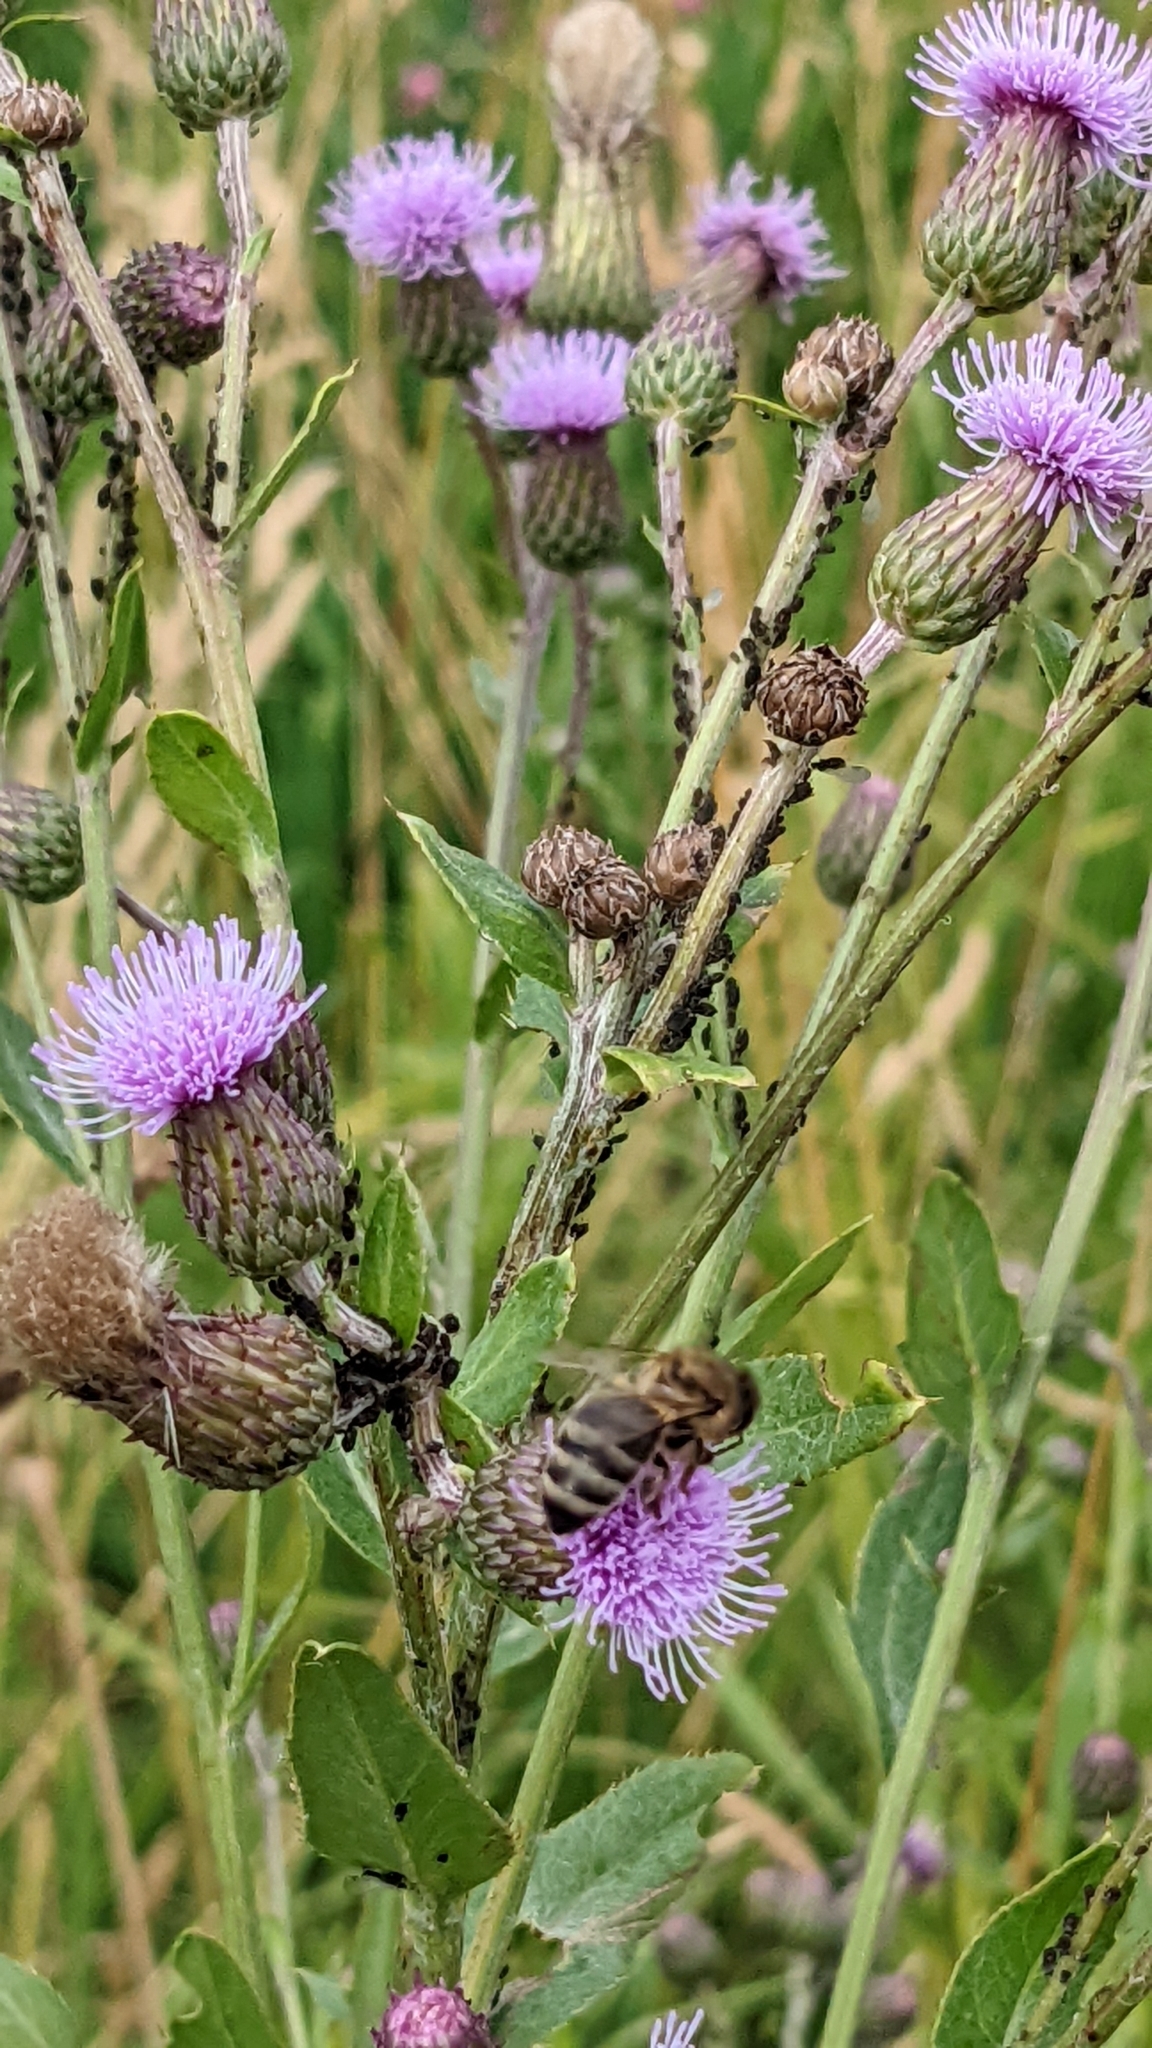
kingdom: Plantae
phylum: Tracheophyta
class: Magnoliopsida
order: Asterales
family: Asteraceae
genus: Cirsium
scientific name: Cirsium arvense
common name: Creeping thistle
